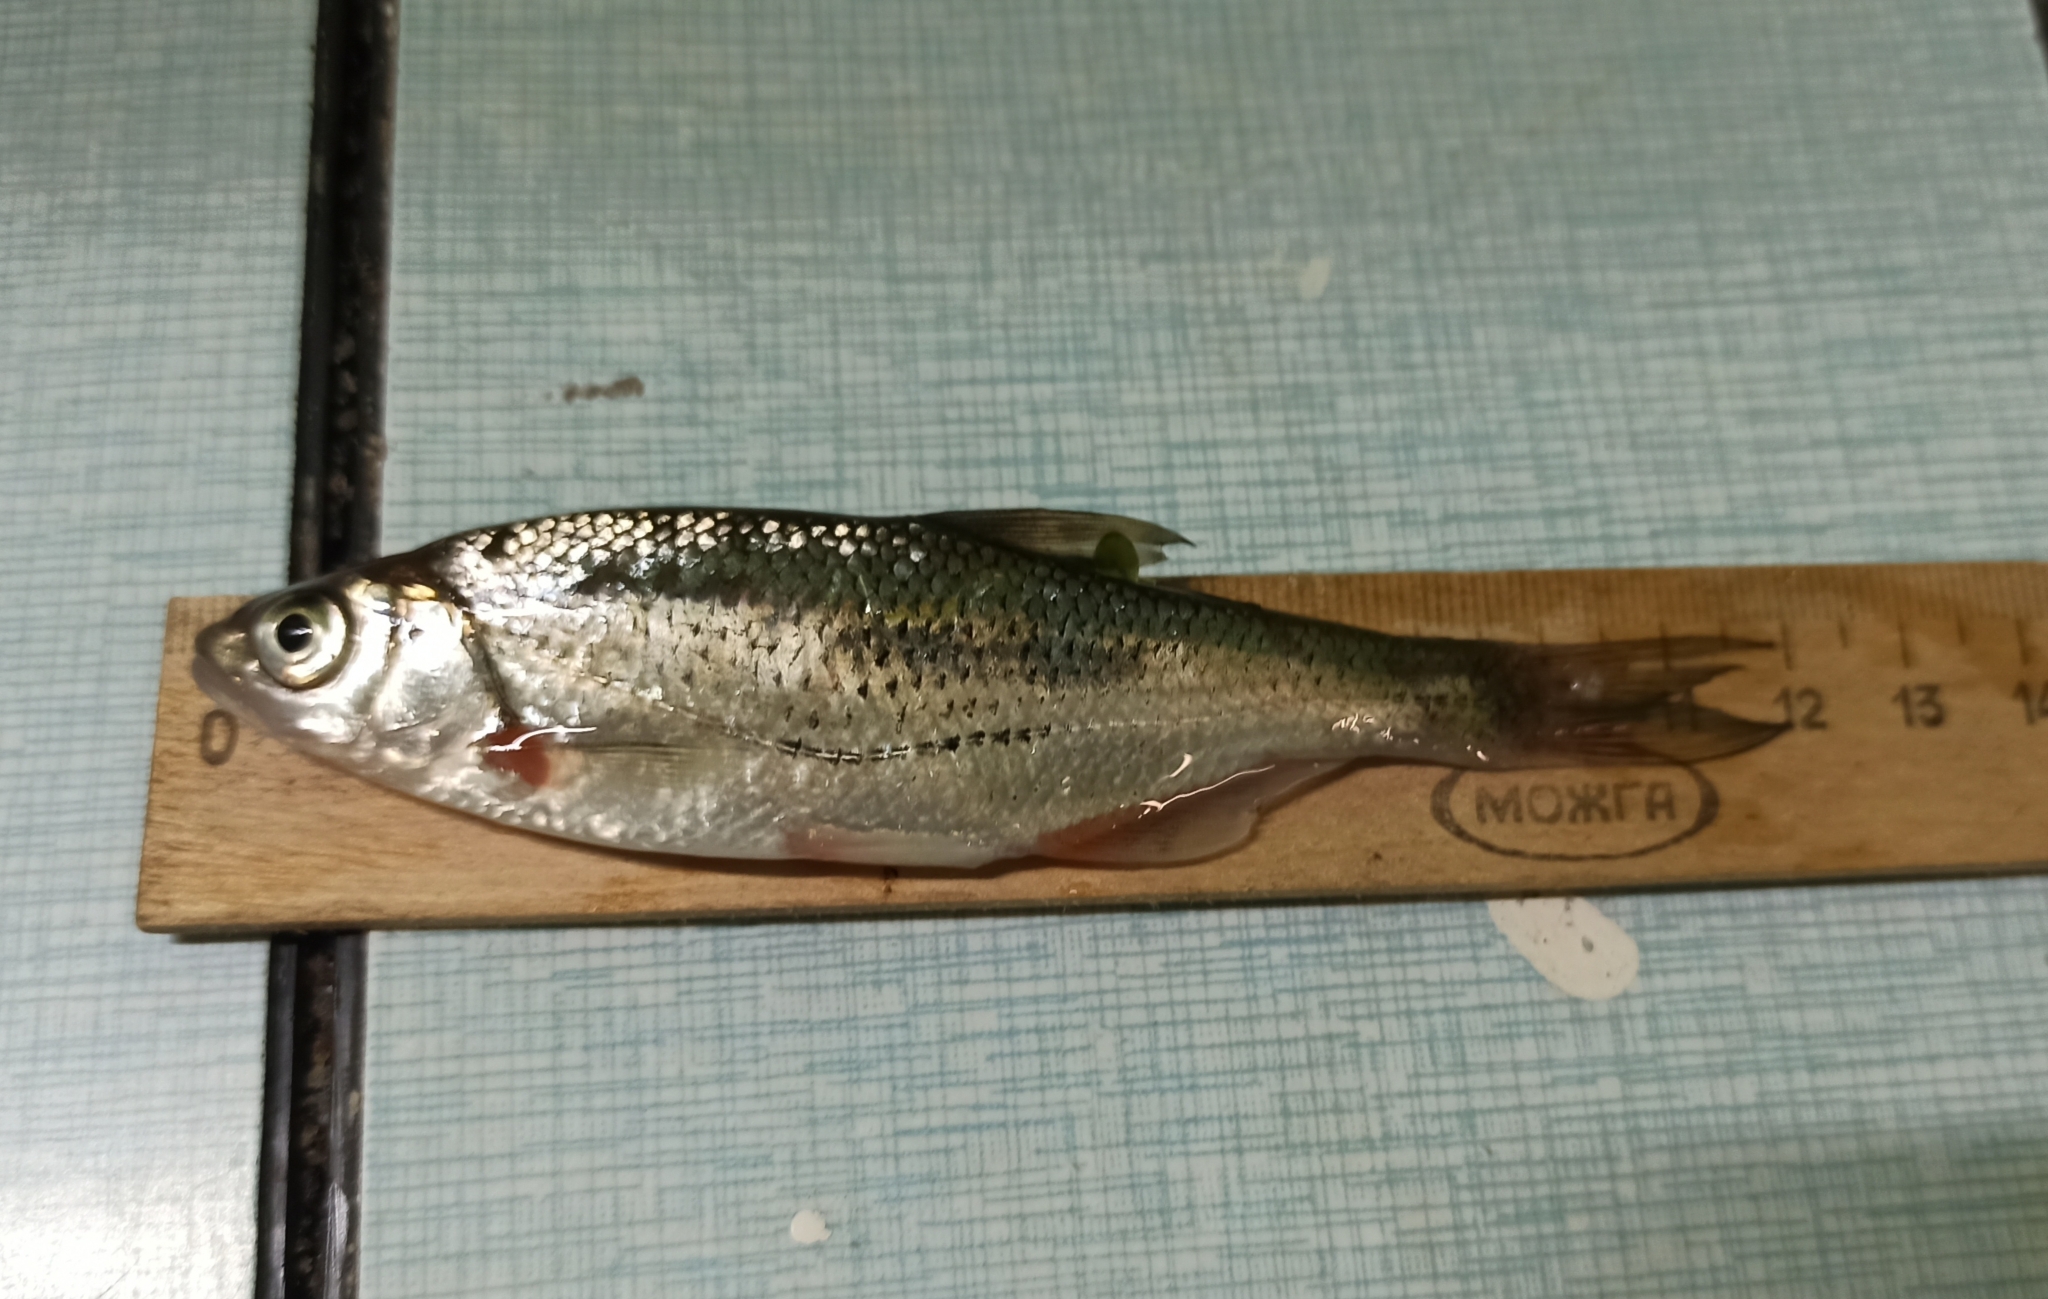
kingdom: Animalia
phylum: Chordata
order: Cypriniformes
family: Cyprinidae
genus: Alburnoides
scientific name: Alburnoides rossicus
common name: Russian spirlin
